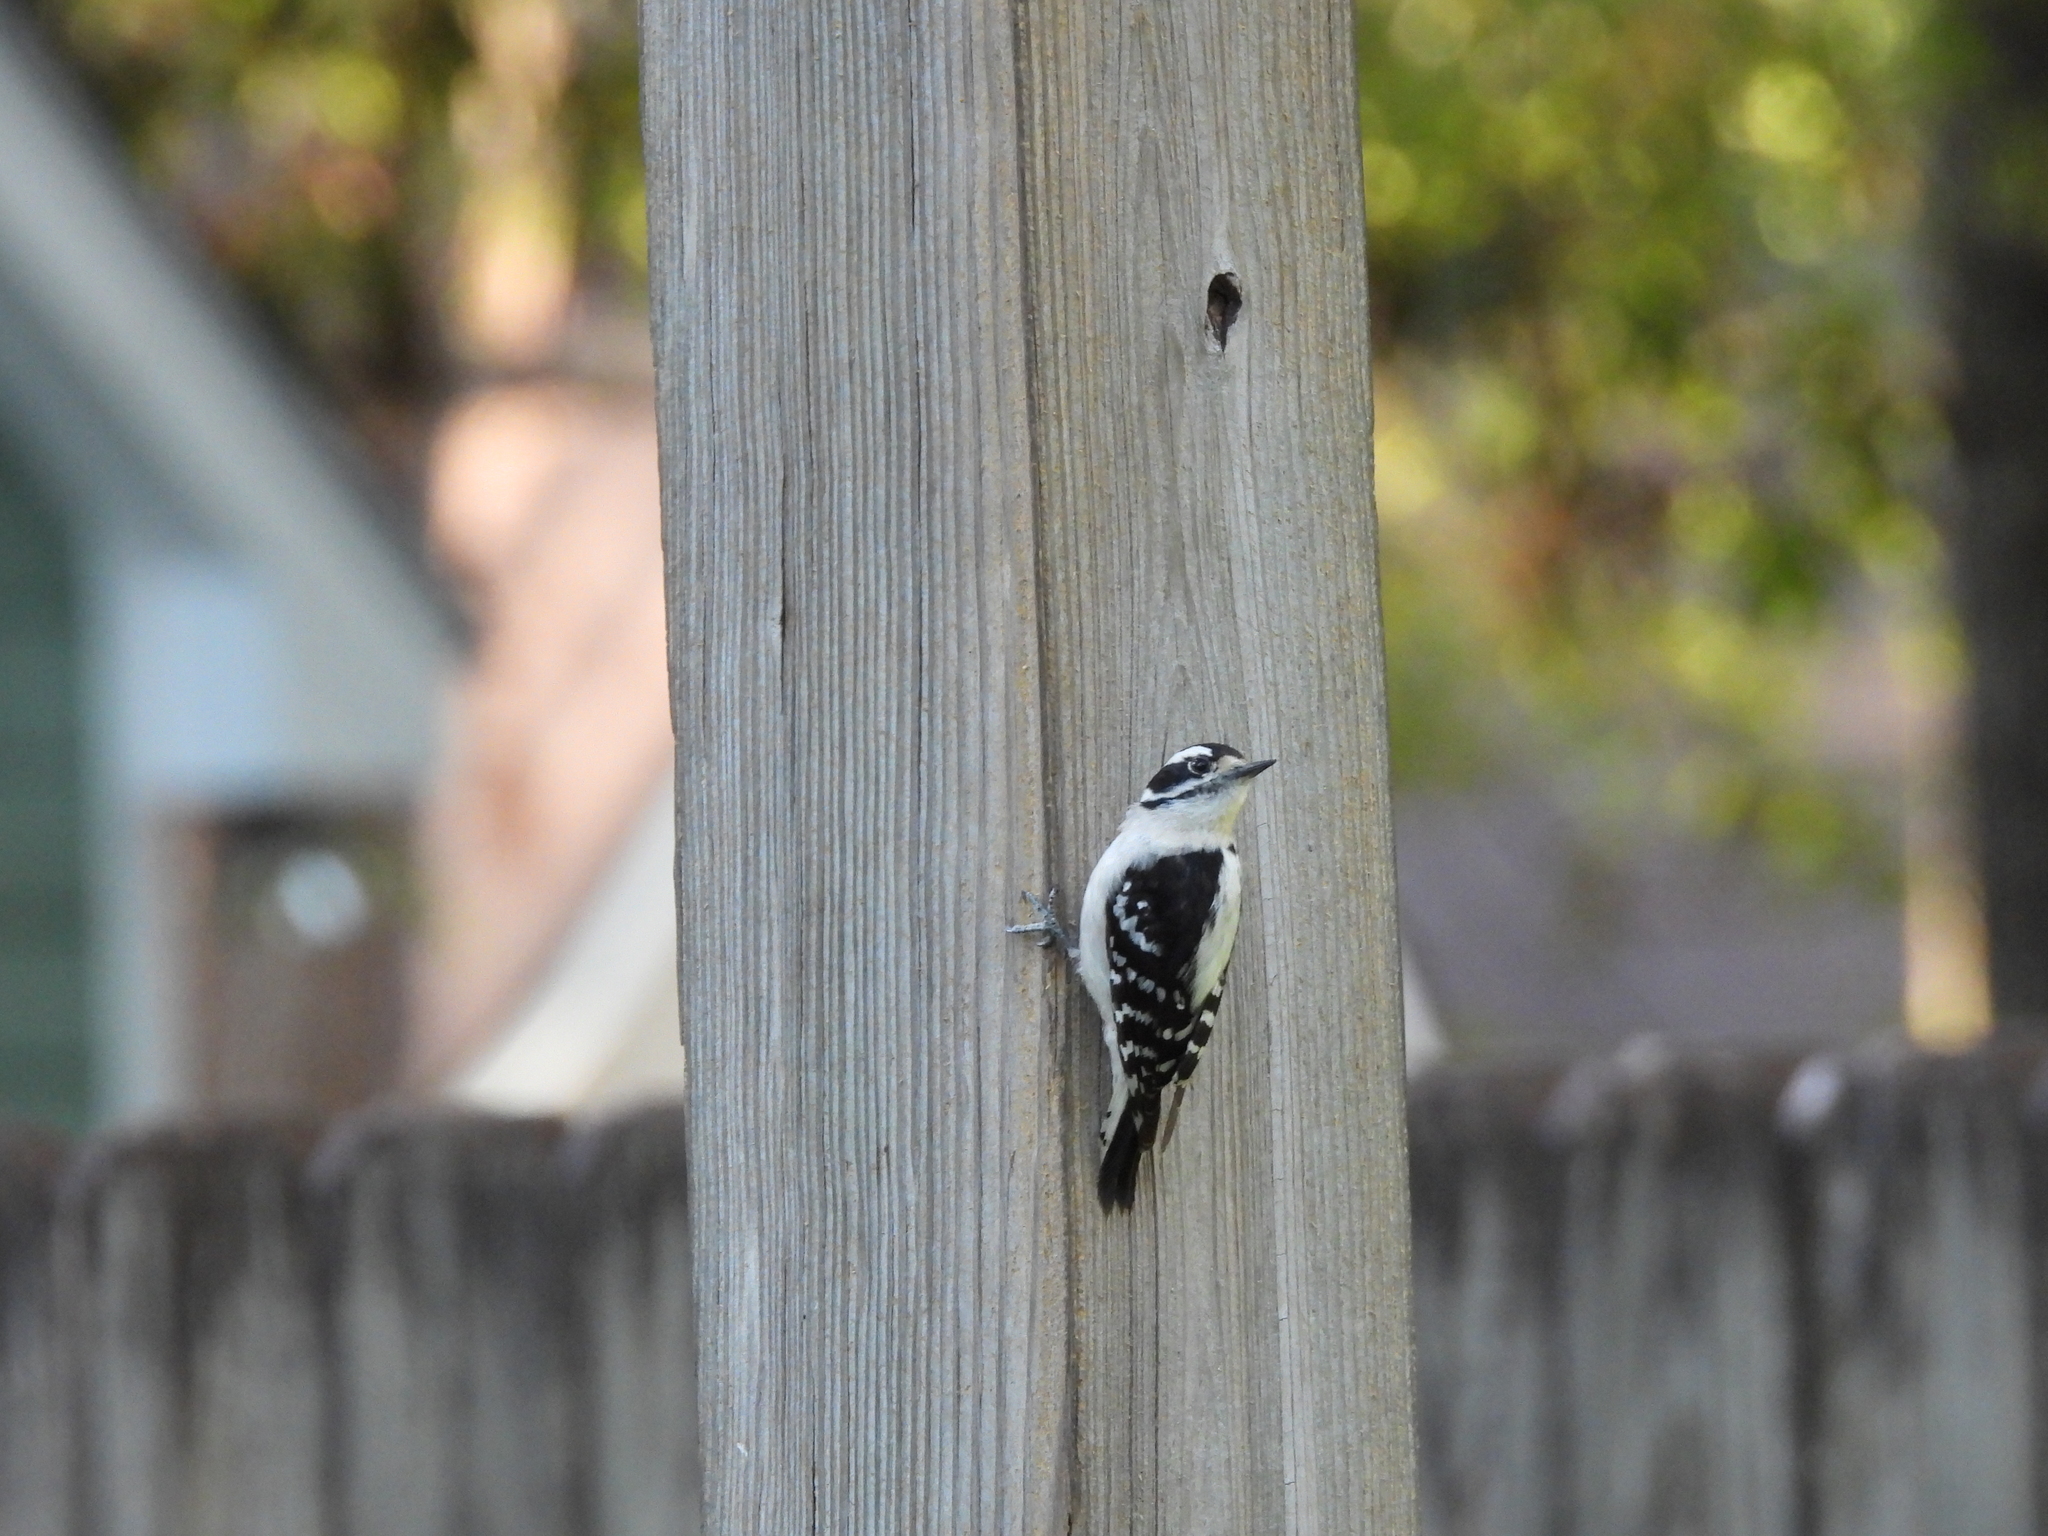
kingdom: Animalia
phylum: Chordata
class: Aves
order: Piciformes
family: Picidae
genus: Dryobates
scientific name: Dryobates pubescens
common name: Downy woodpecker
